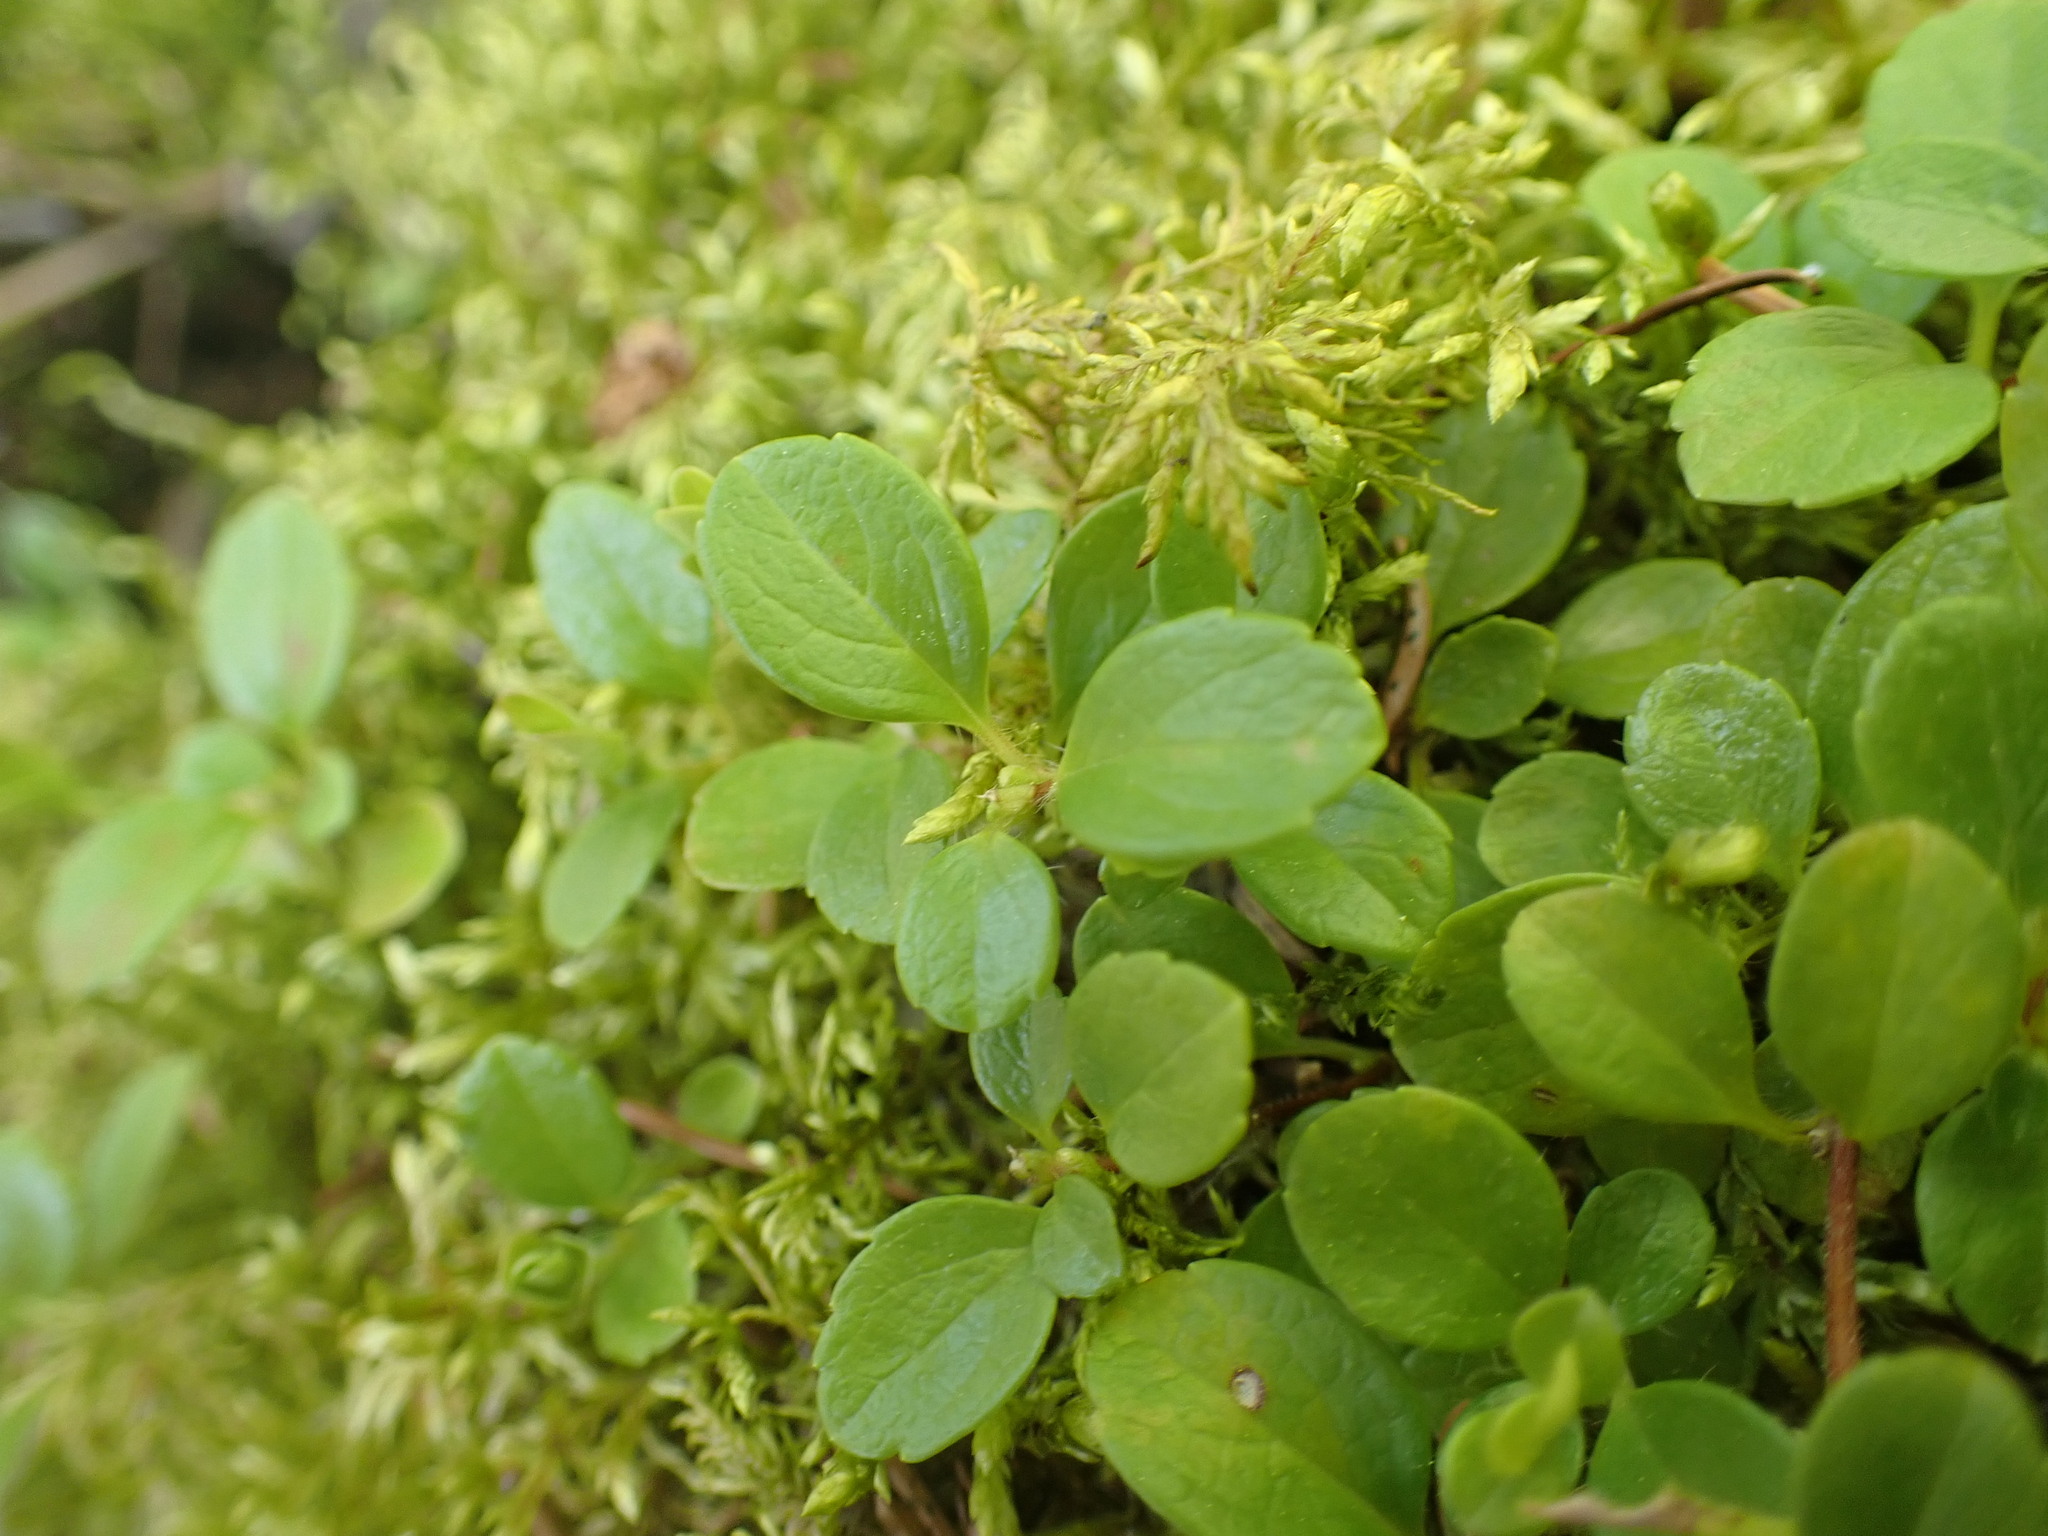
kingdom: Plantae
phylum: Tracheophyta
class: Magnoliopsida
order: Dipsacales
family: Caprifoliaceae
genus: Linnaea
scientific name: Linnaea borealis
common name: Twinflower
